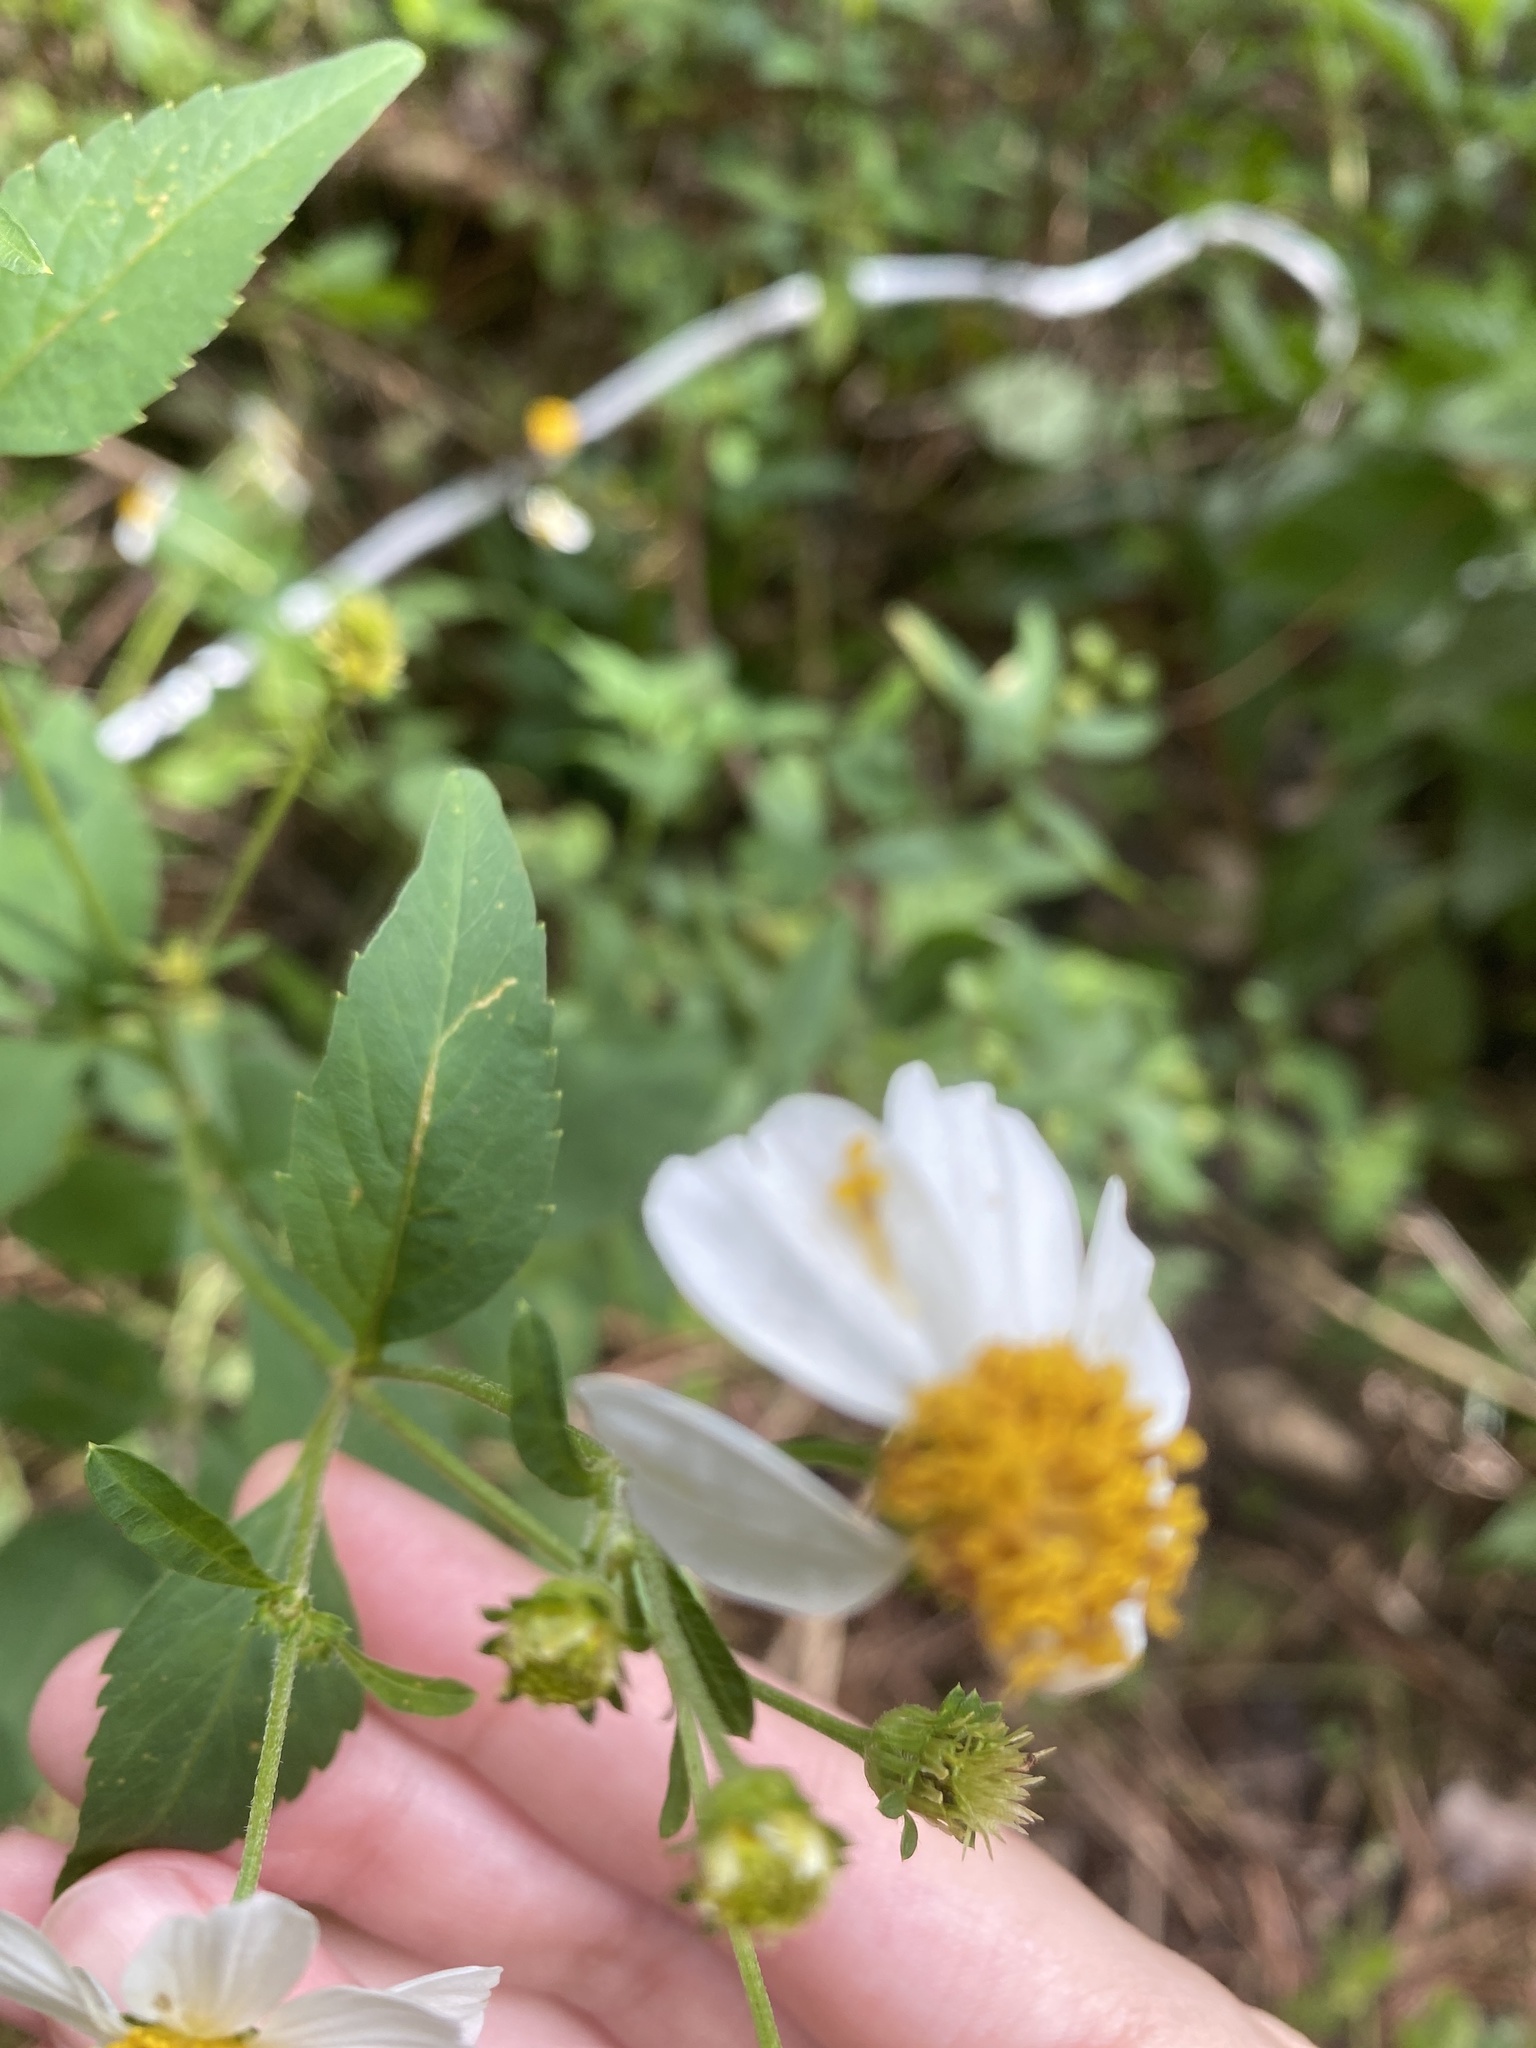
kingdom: Plantae
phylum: Tracheophyta
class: Magnoliopsida
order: Asterales
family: Asteraceae
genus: Bidens
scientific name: Bidens alba
